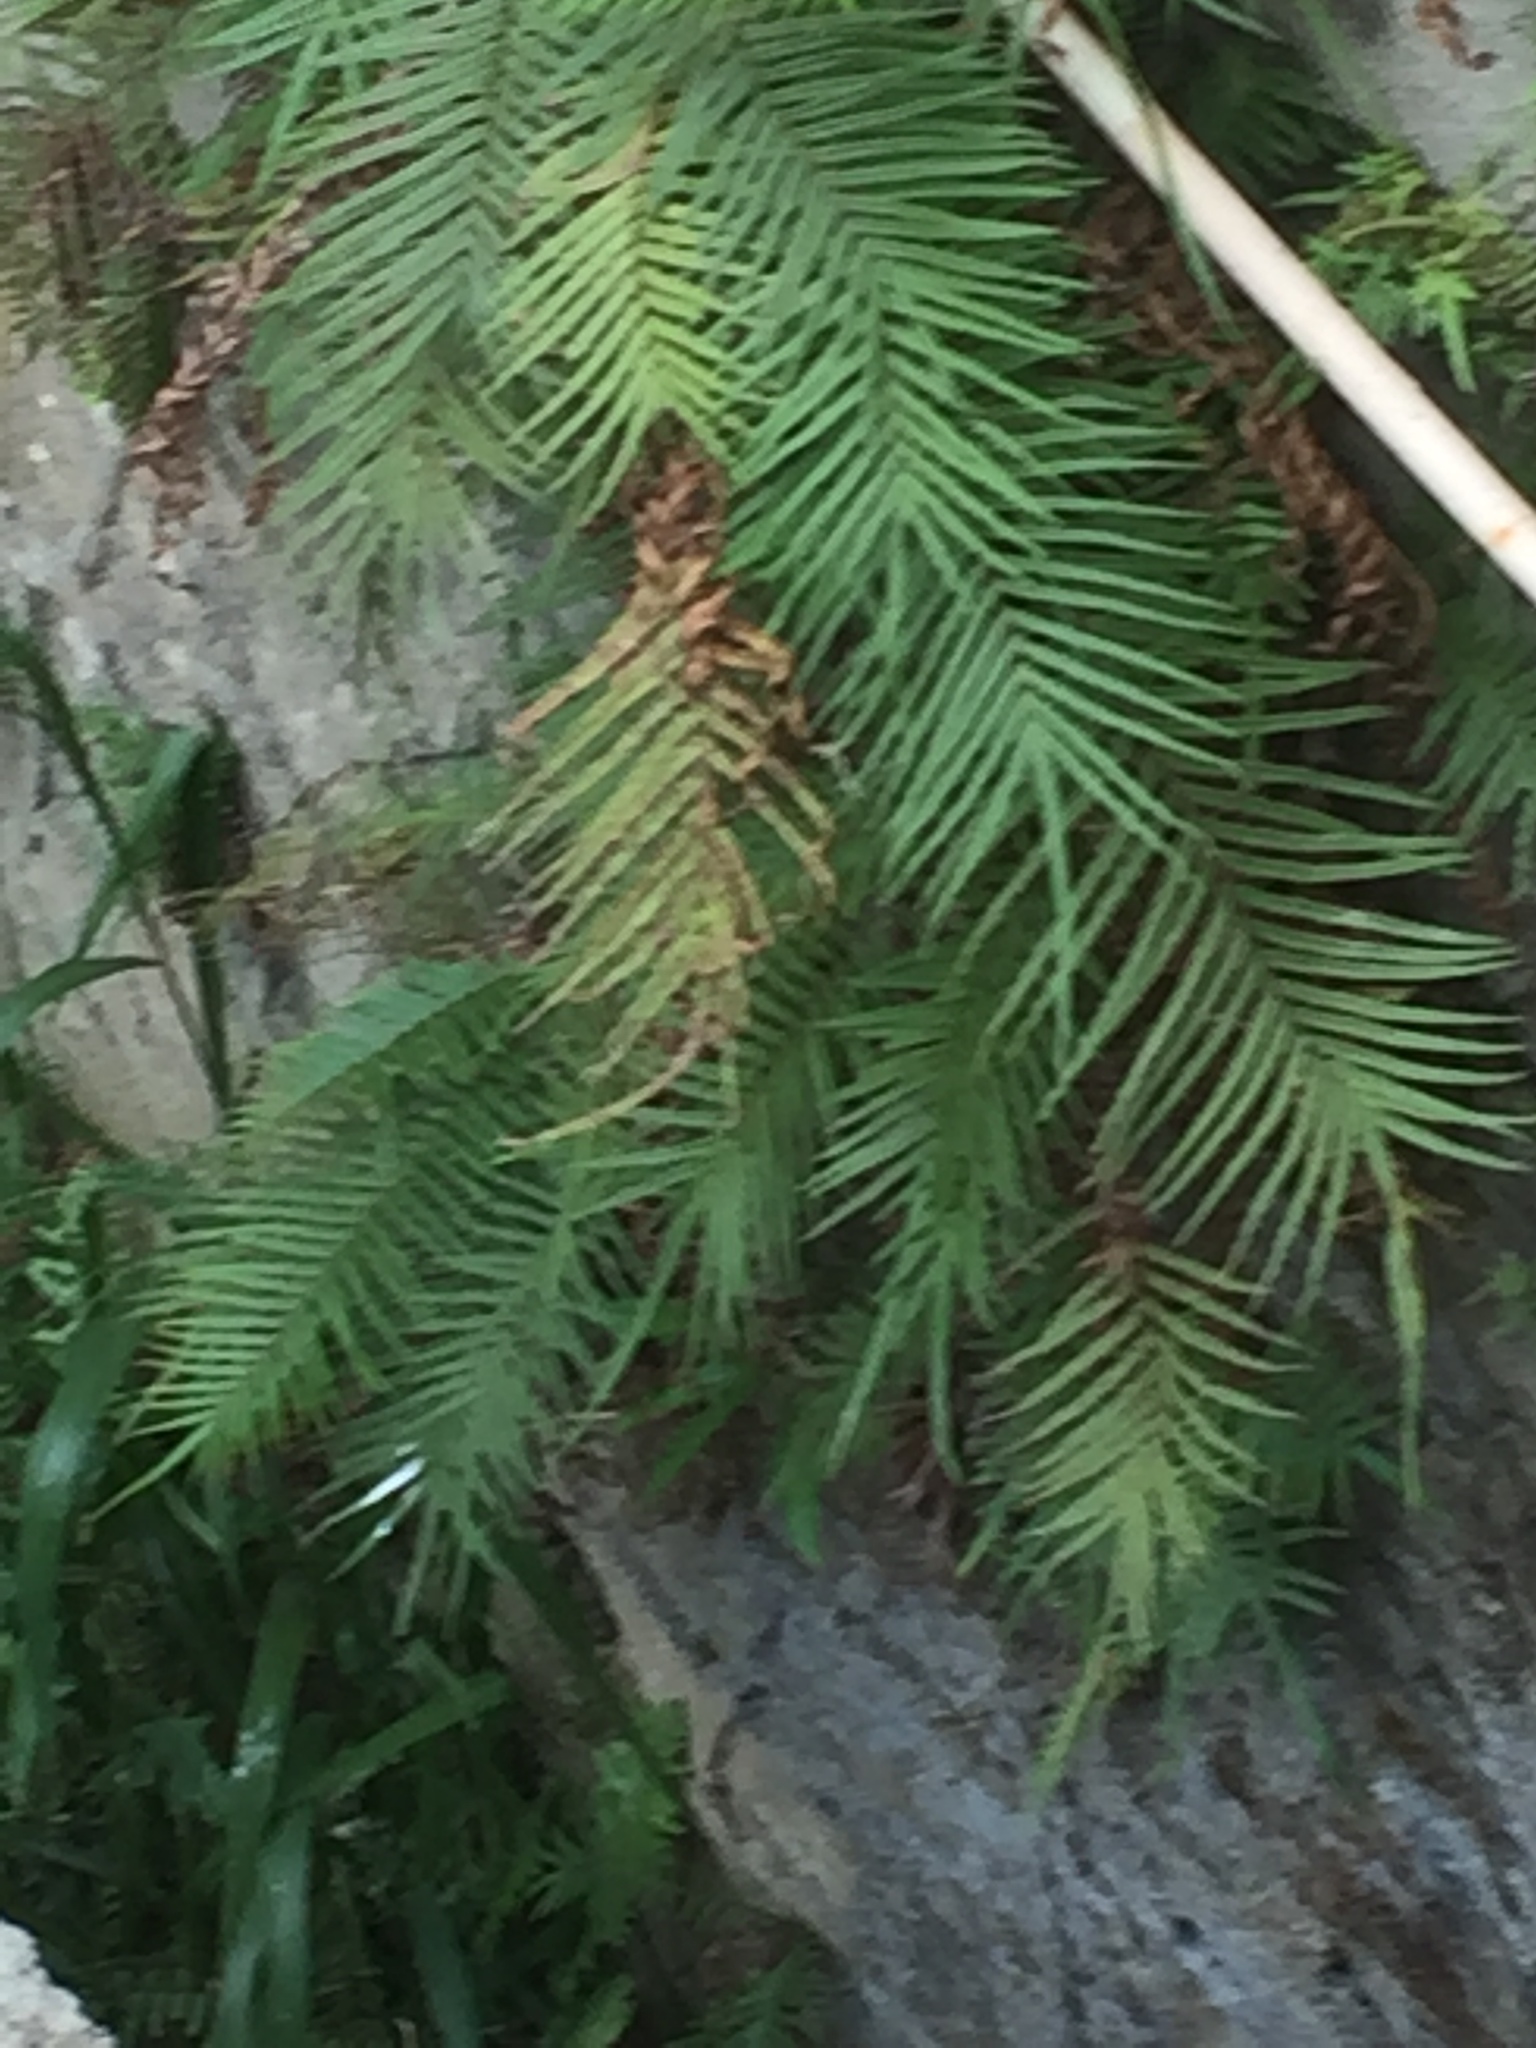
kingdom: Plantae
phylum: Tracheophyta
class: Polypodiopsida
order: Polypodiales
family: Pteridaceae
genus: Pteris
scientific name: Pteris vittata
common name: Ladder brake
